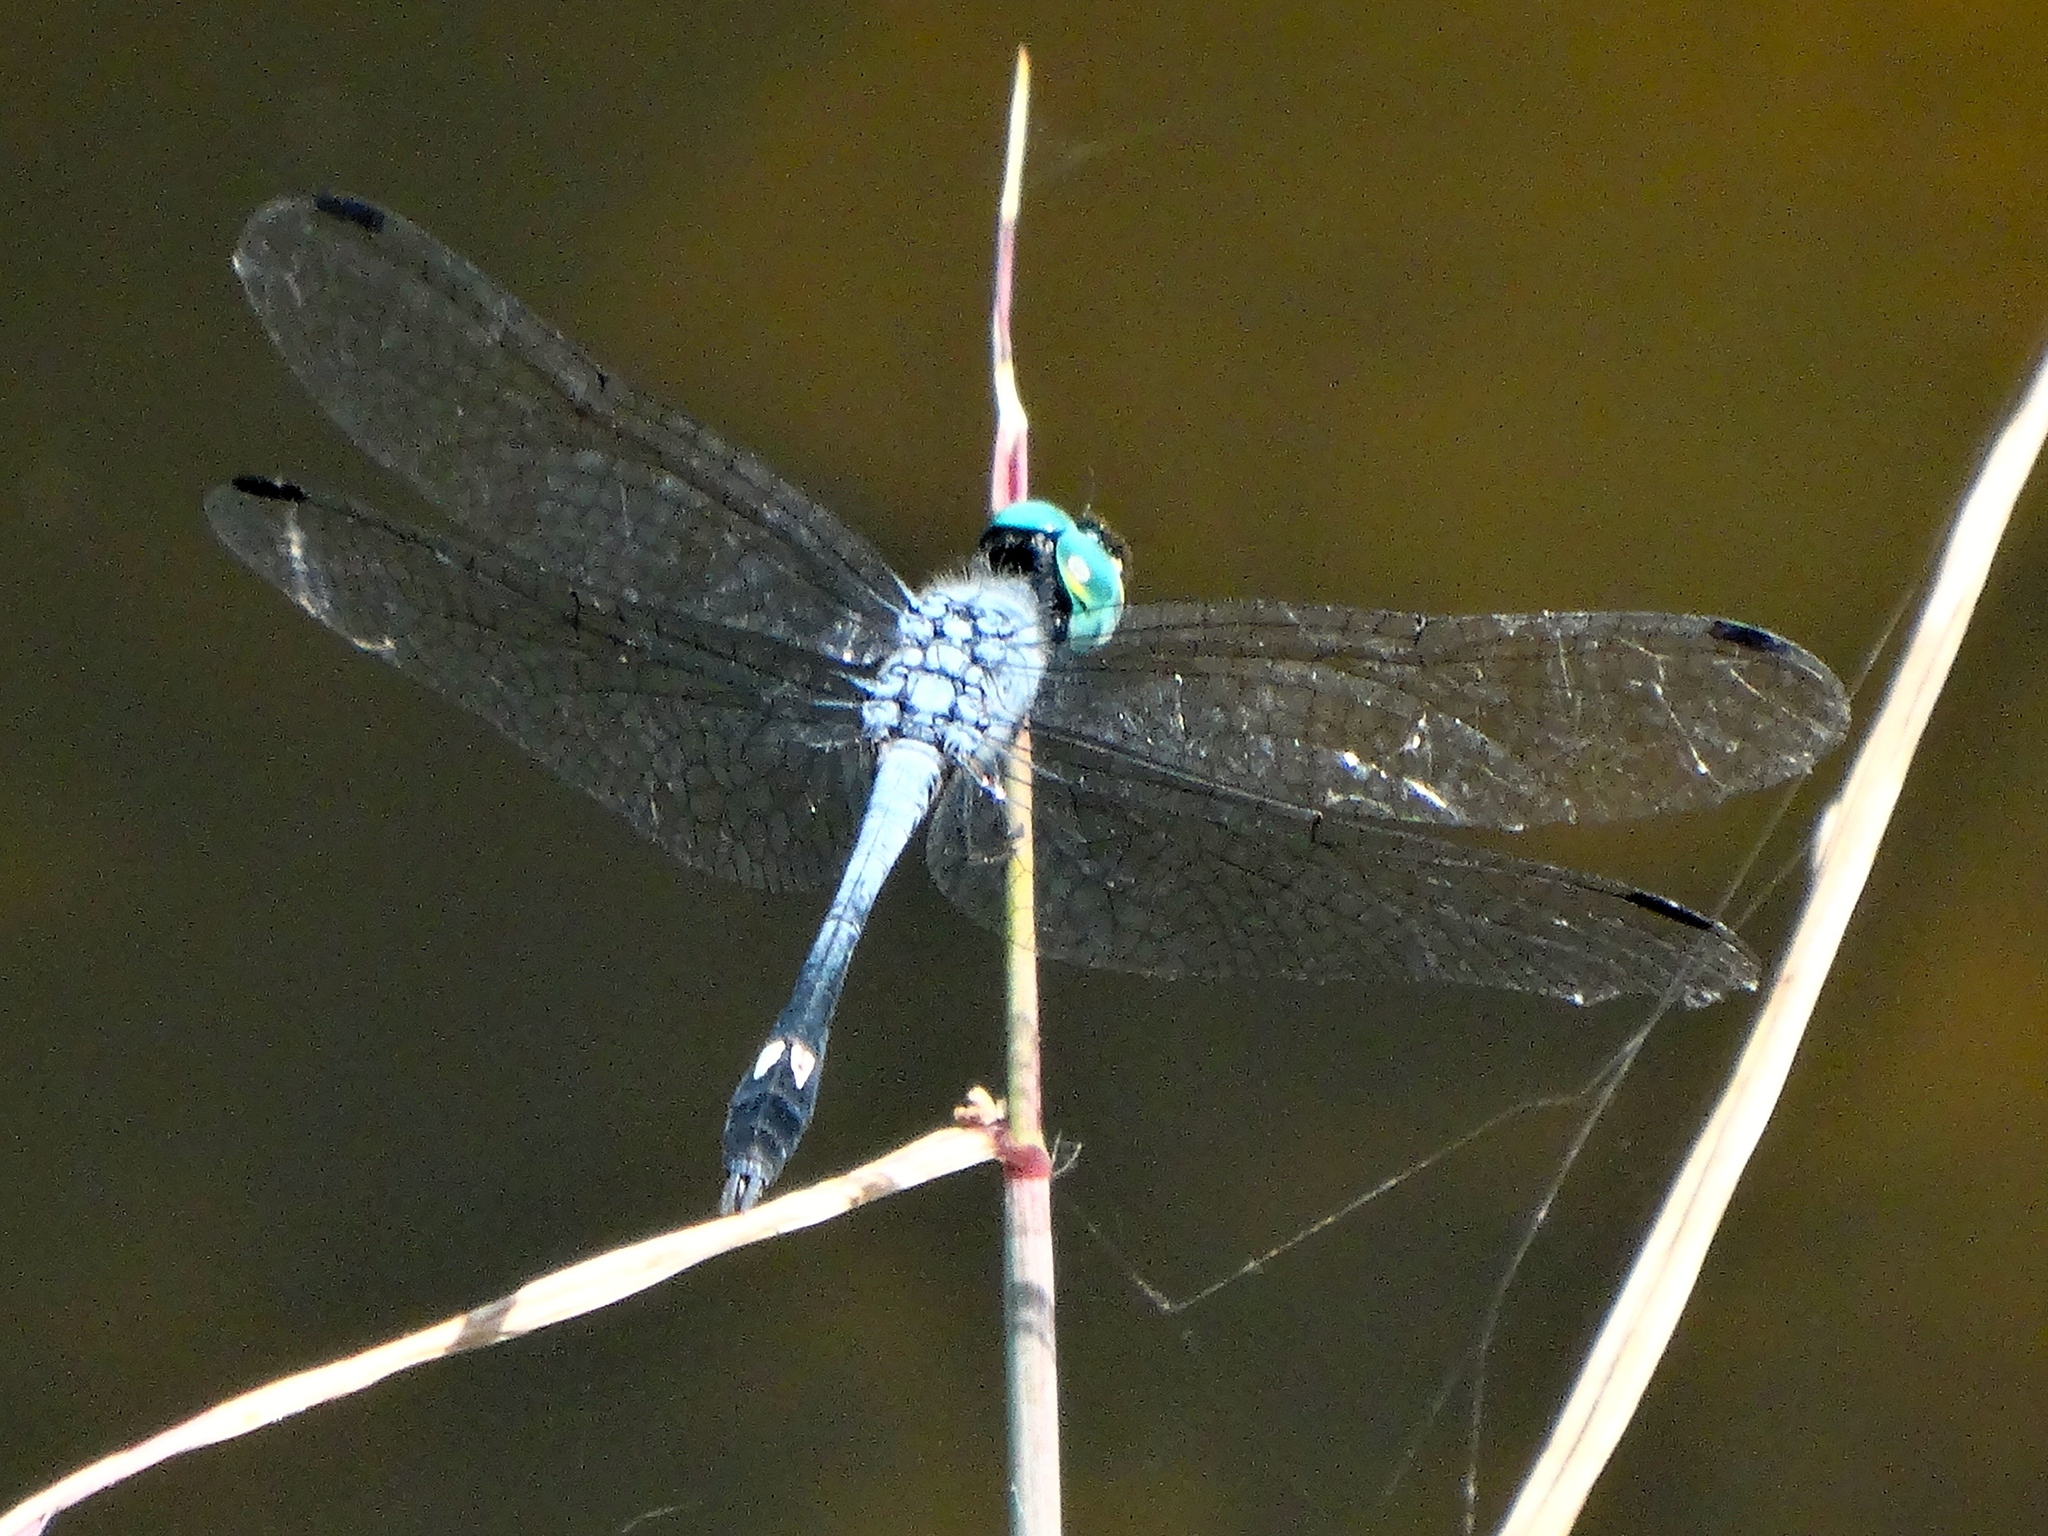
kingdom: Animalia
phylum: Arthropoda
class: Insecta
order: Odonata
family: Libellulidae
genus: Micrathyria
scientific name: Micrathyria aequalis
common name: Spot-tailed dasher
